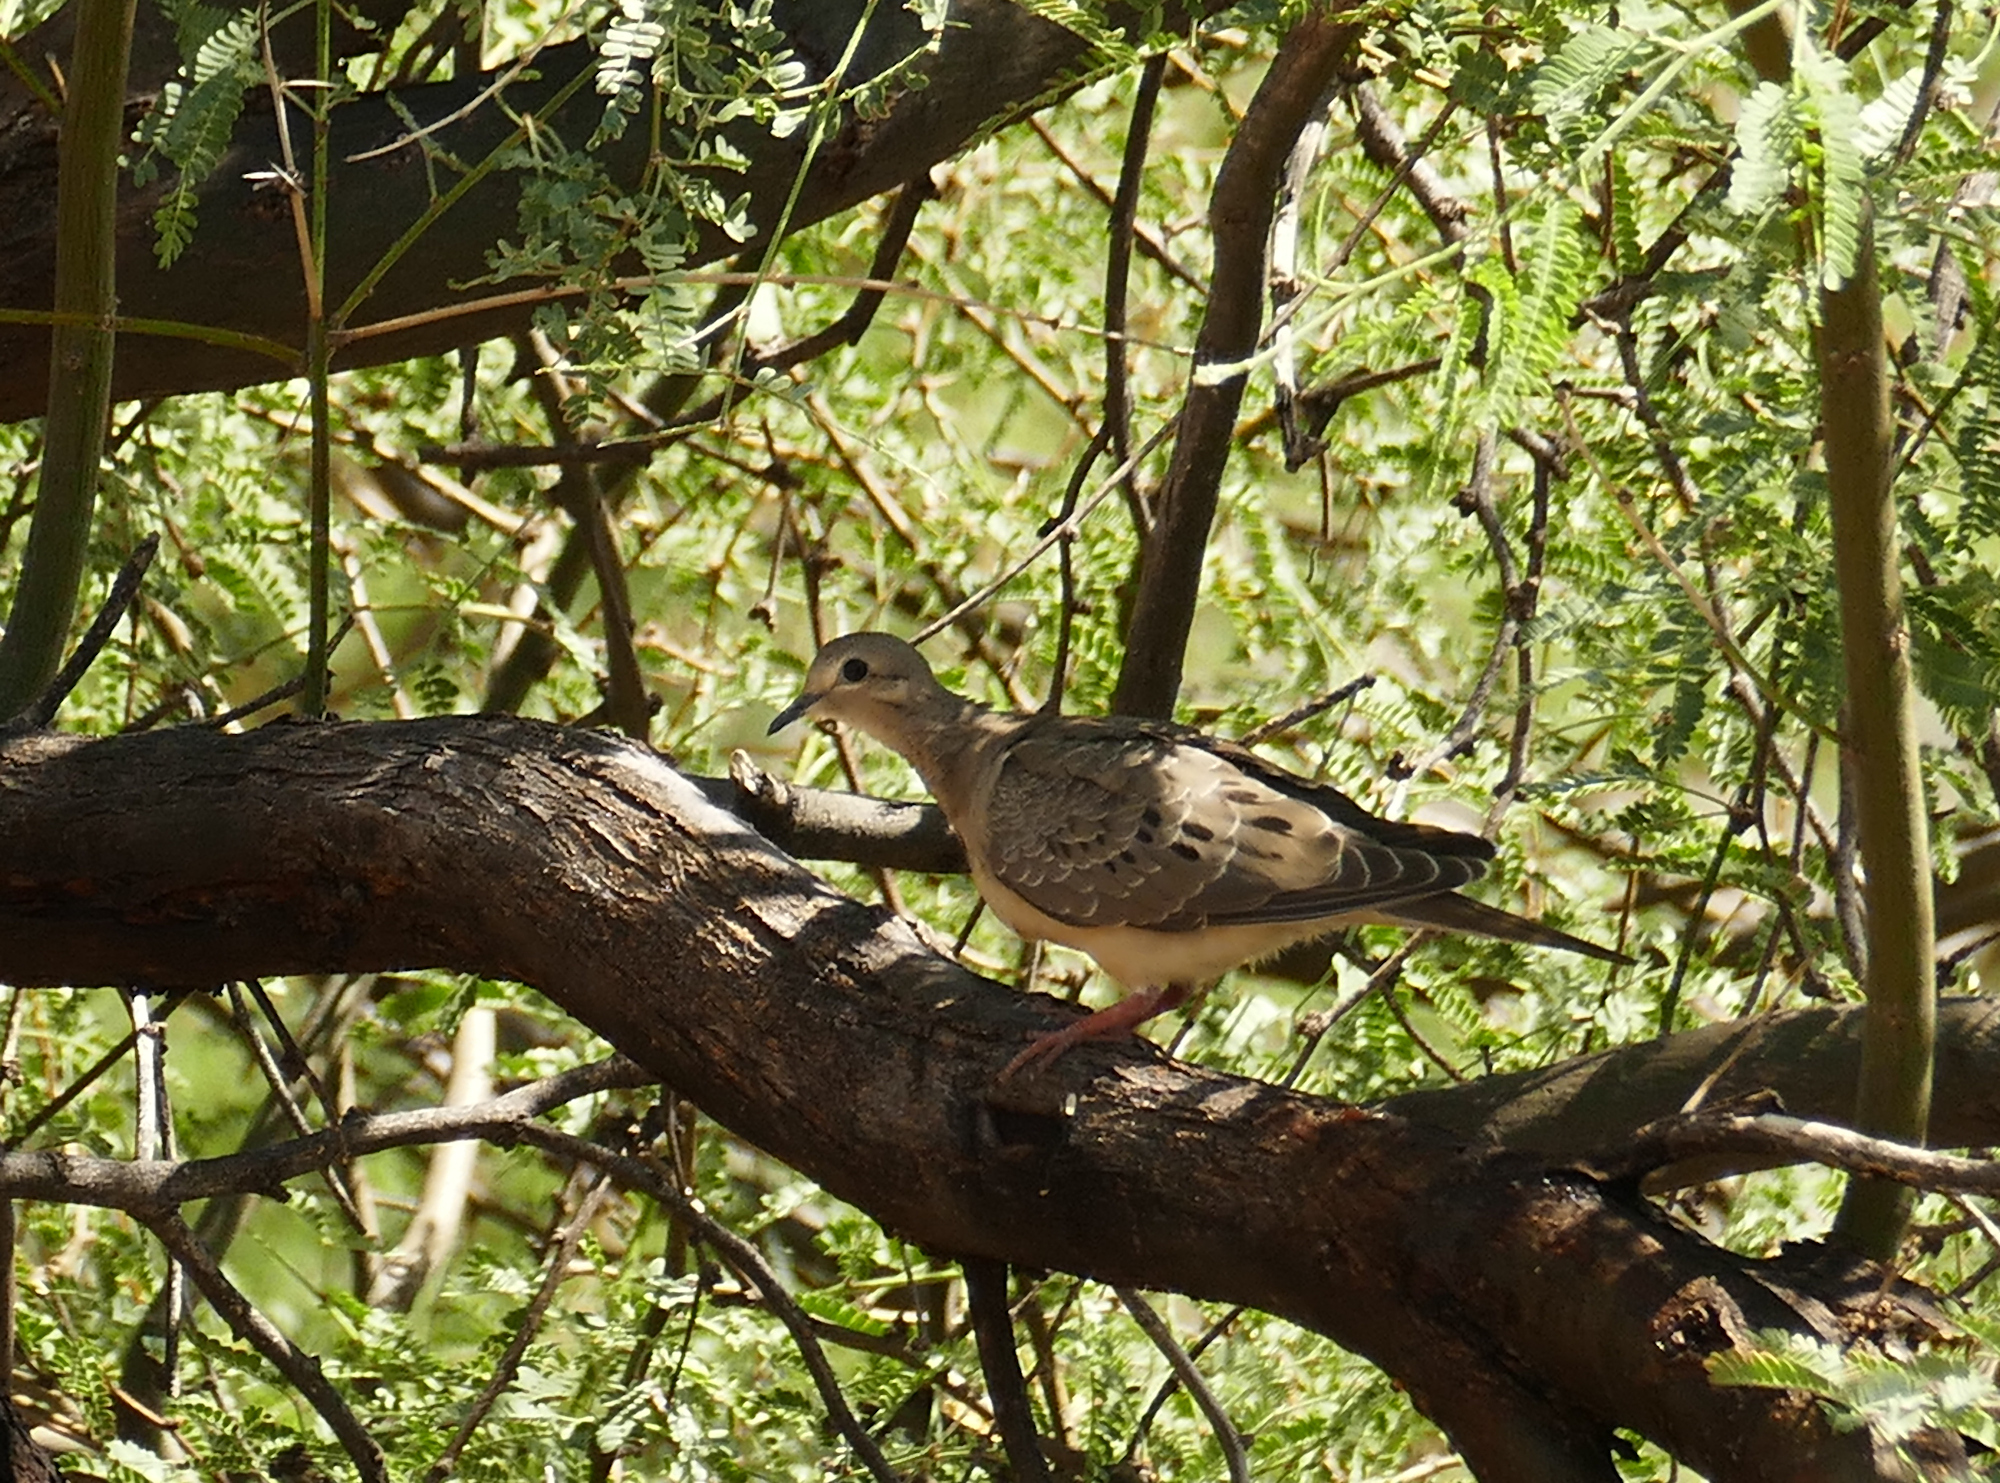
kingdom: Animalia
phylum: Chordata
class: Aves
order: Columbiformes
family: Columbidae
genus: Zenaida
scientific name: Zenaida macroura
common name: Mourning dove
